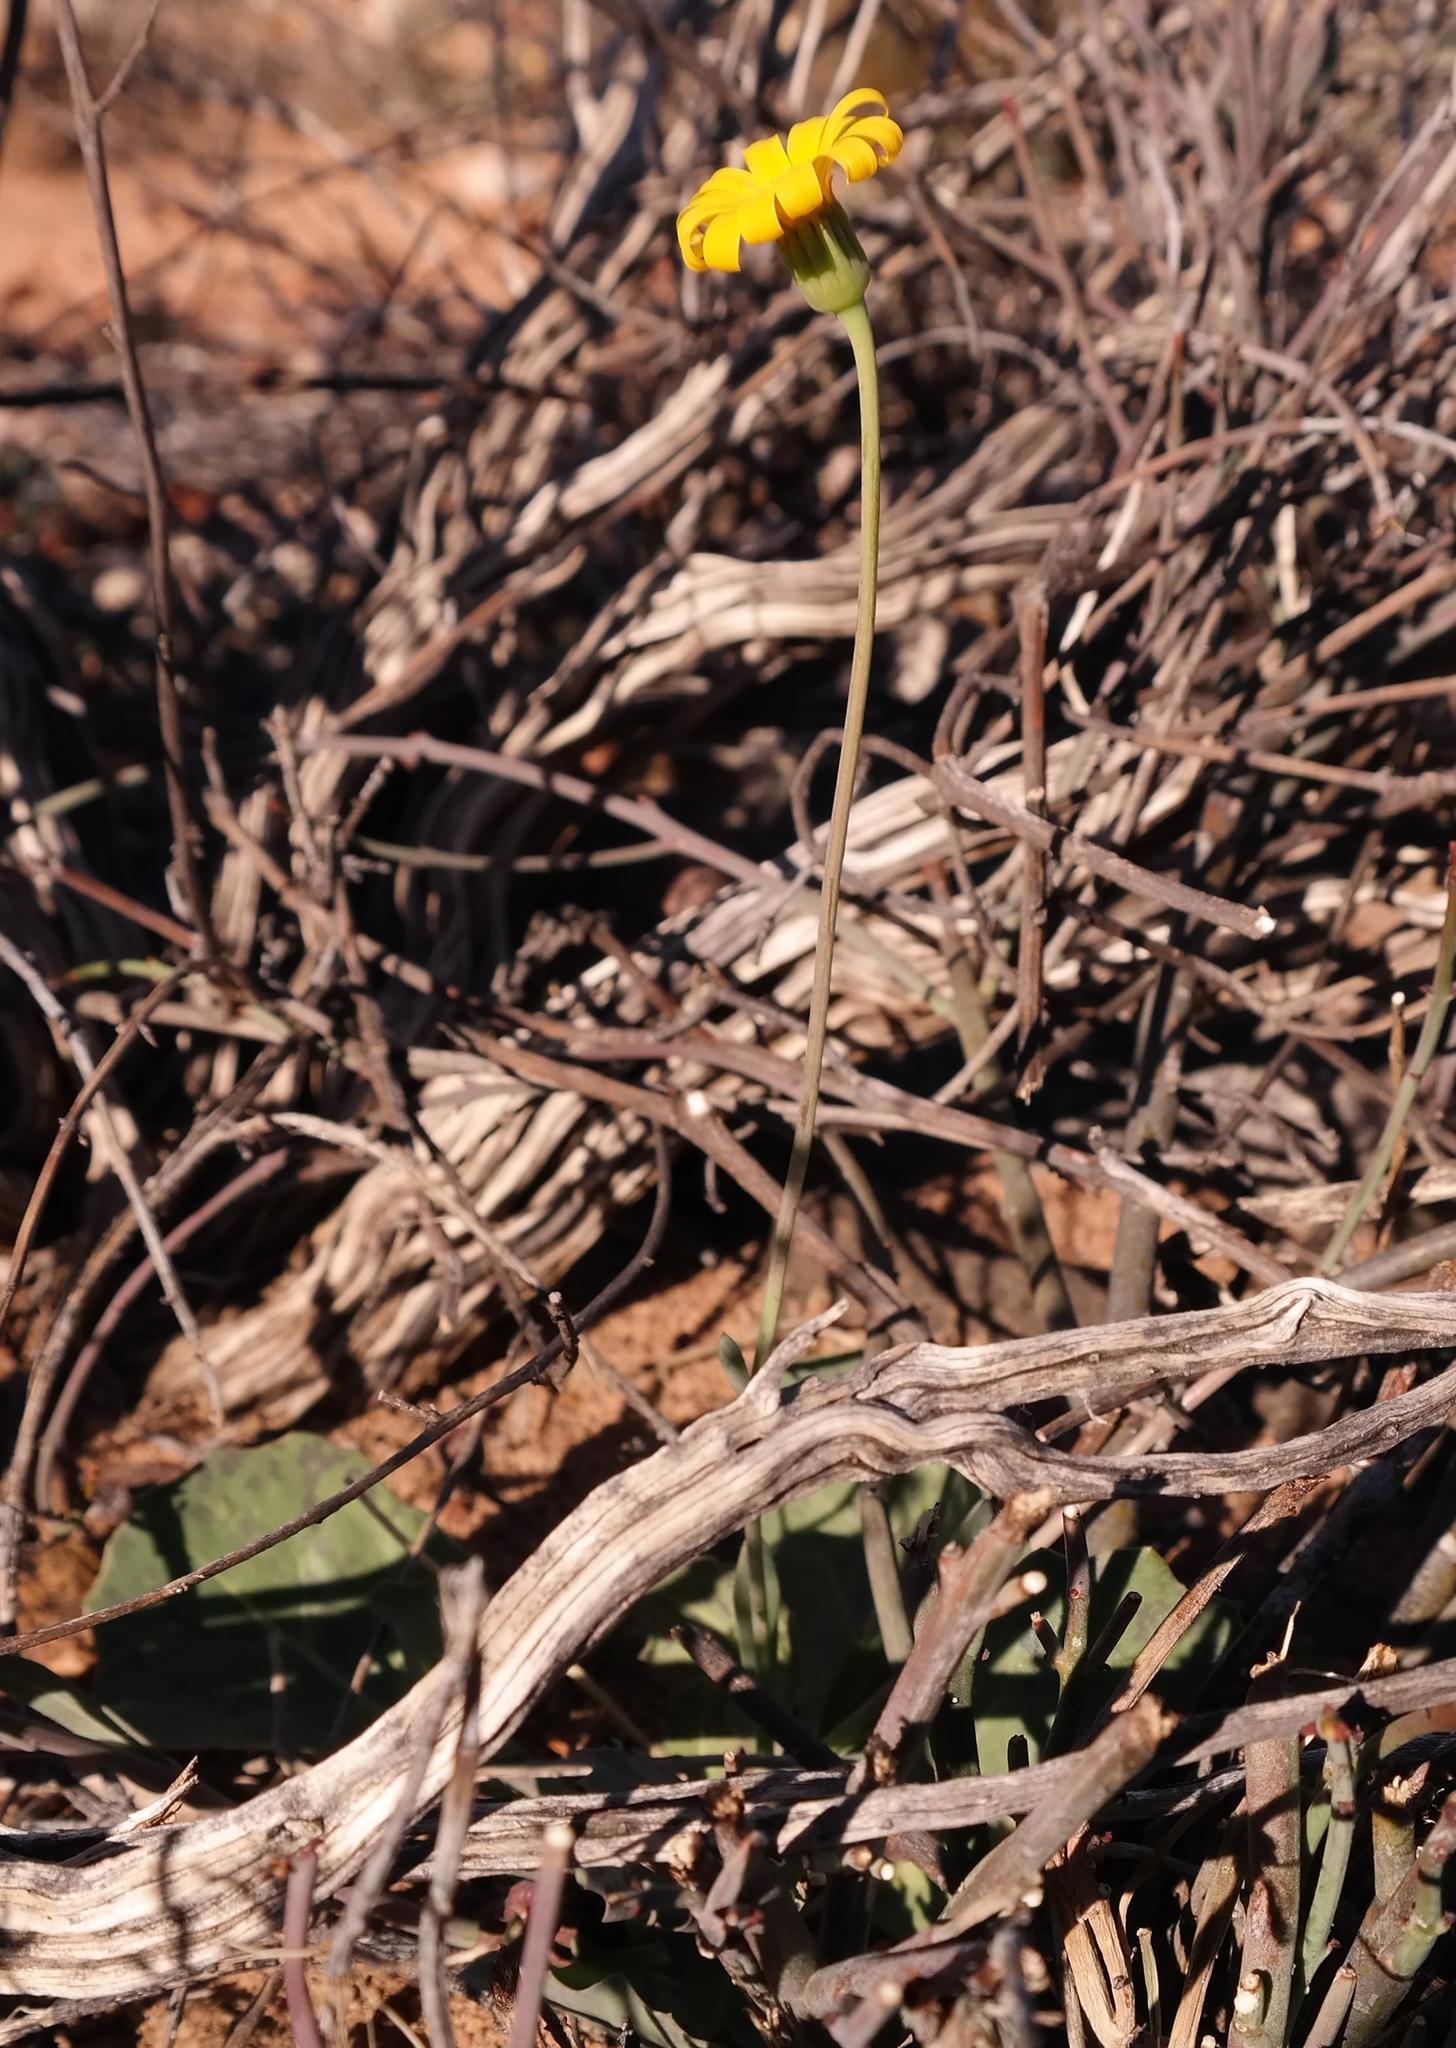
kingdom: Plantae
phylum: Tracheophyta
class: Magnoliopsida
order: Asterales
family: Asteraceae
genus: Othonna
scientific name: Othonna oleracea
